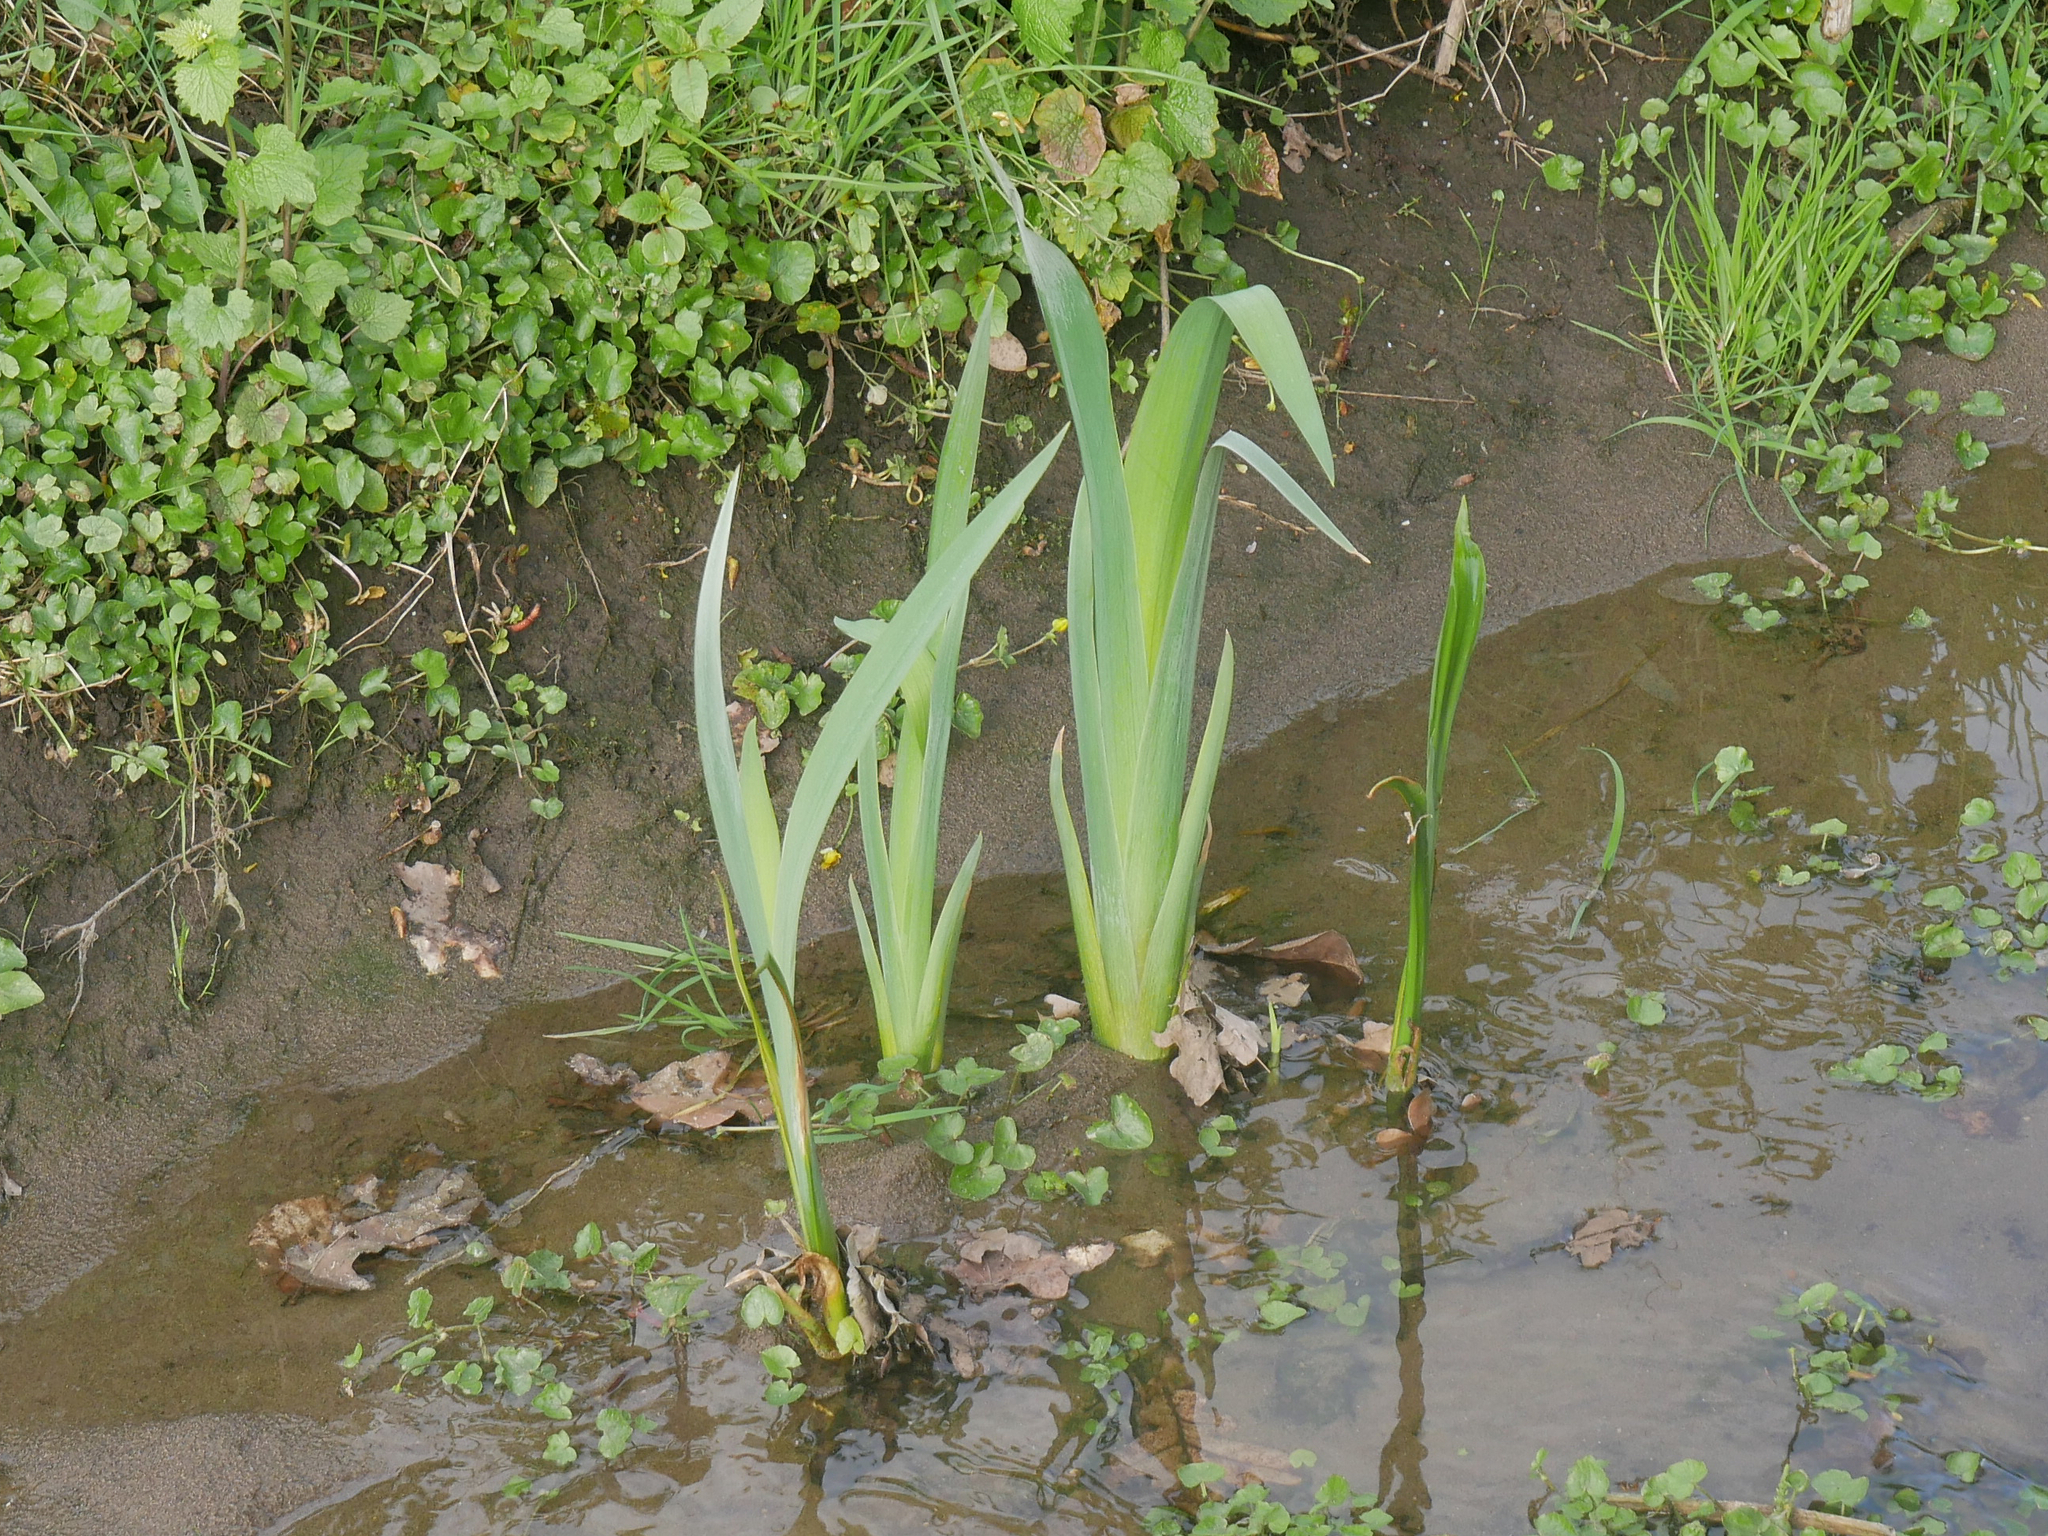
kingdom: Plantae
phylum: Tracheophyta
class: Liliopsida
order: Asparagales
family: Iridaceae
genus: Iris
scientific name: Iris pseudacorus
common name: Yellow flag
